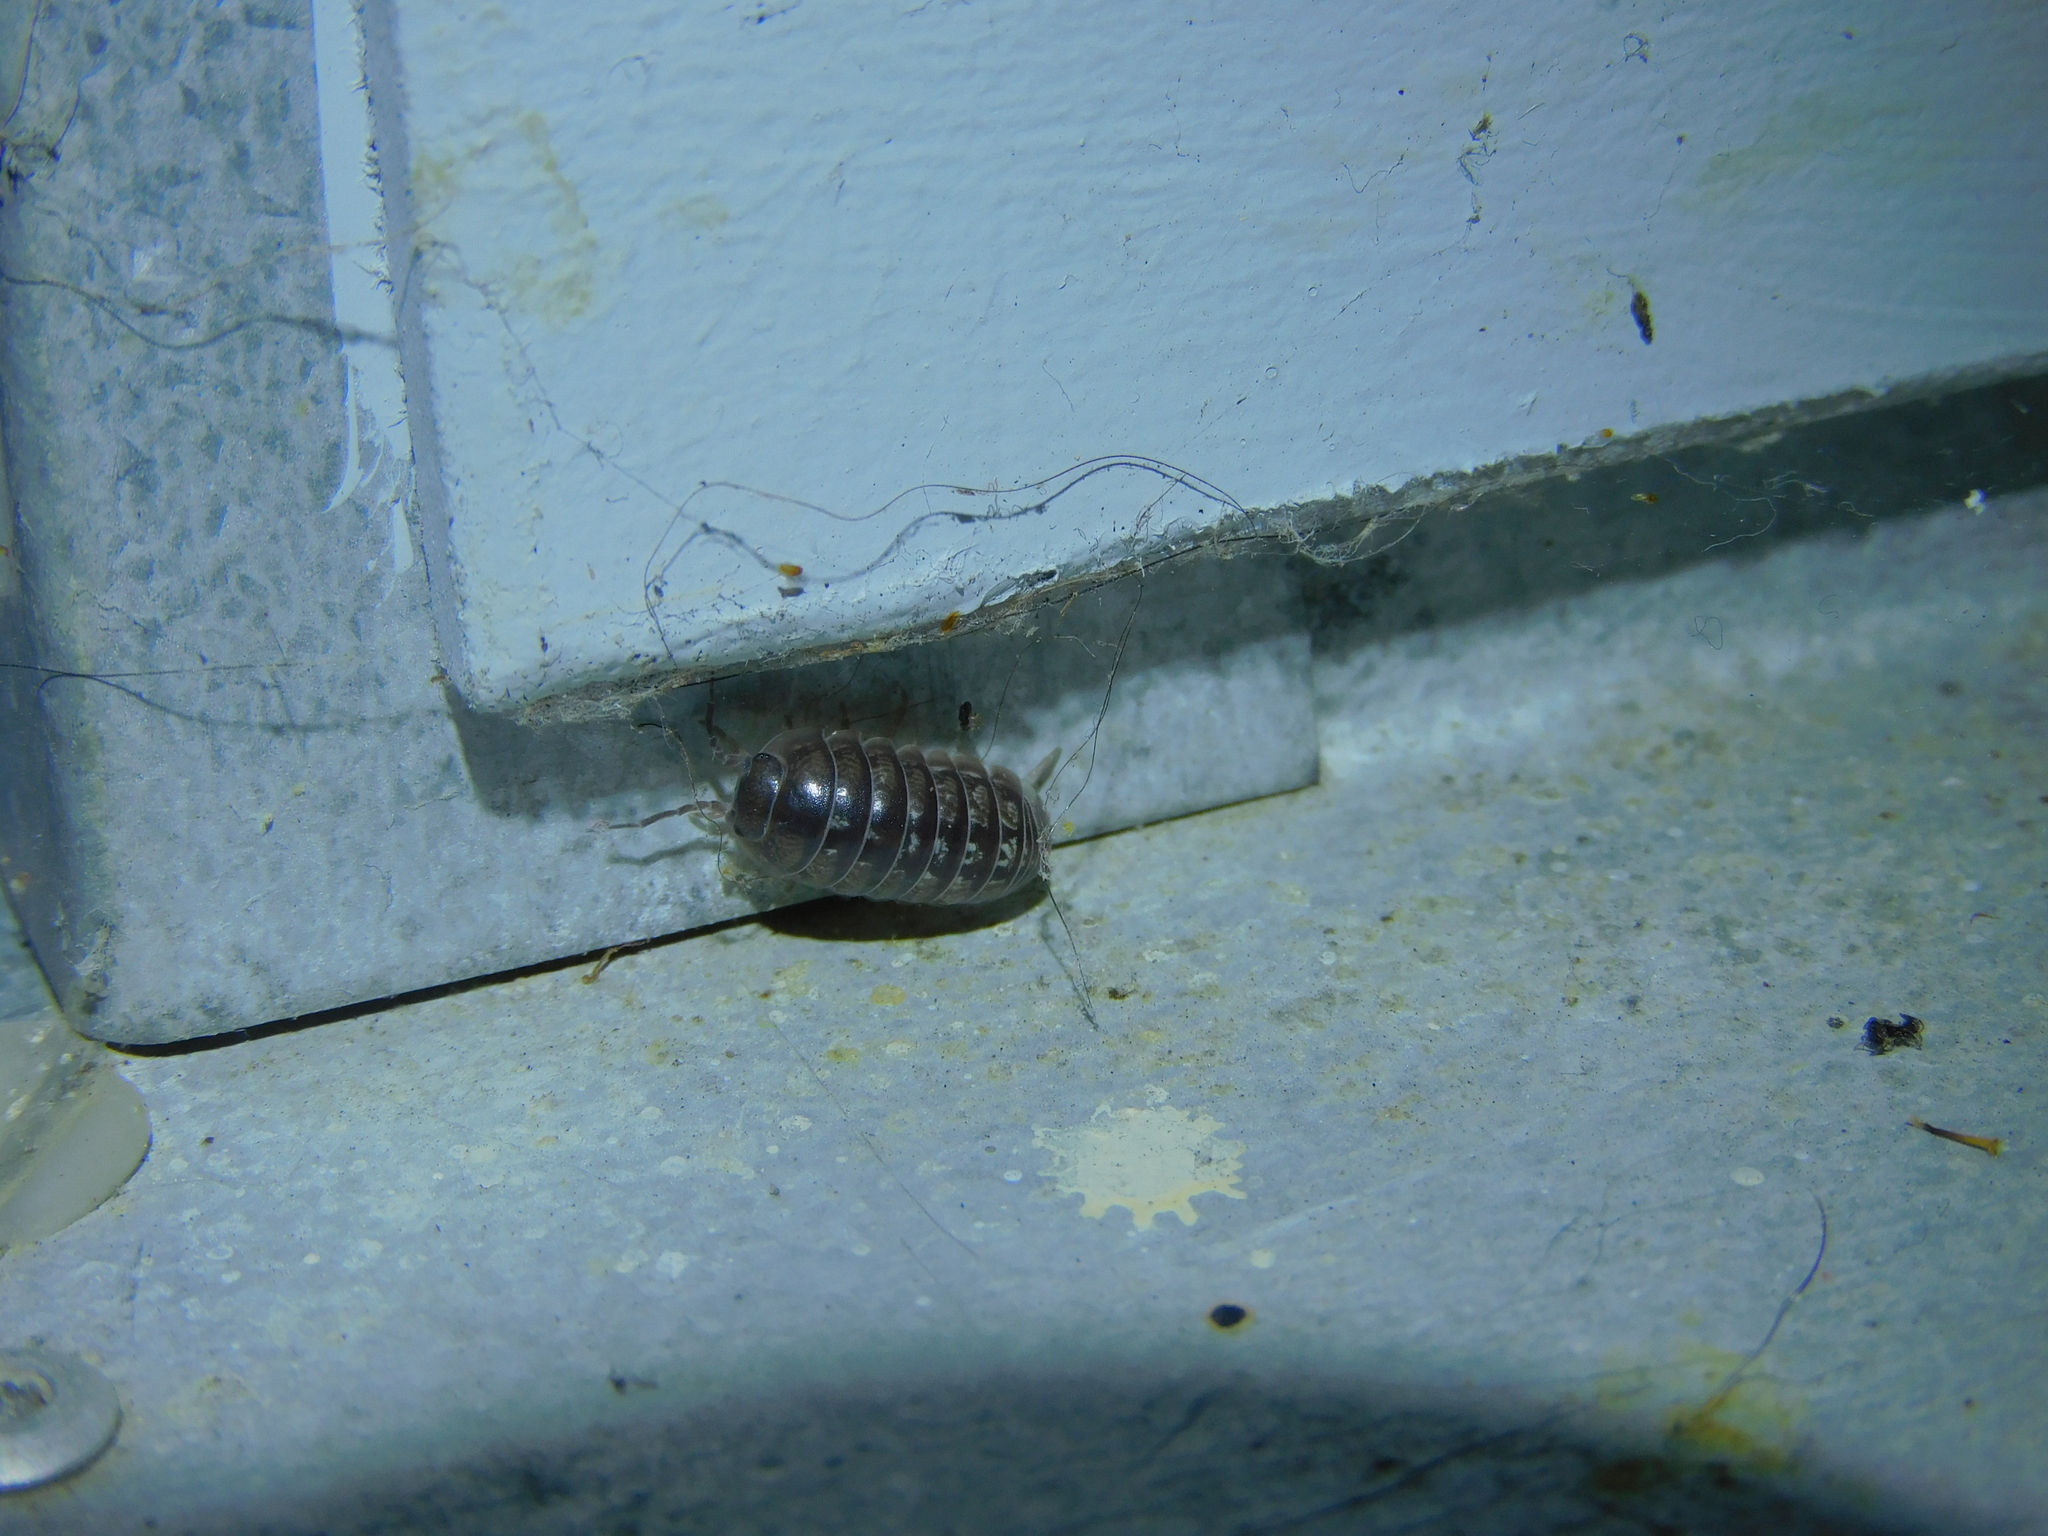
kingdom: Animalia
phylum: Arthropoda
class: Malacostraca
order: Isopoda
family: Armadillidiidae
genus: Armadillidium
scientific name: Armadillidium vulgare
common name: Common pill woodlouse
